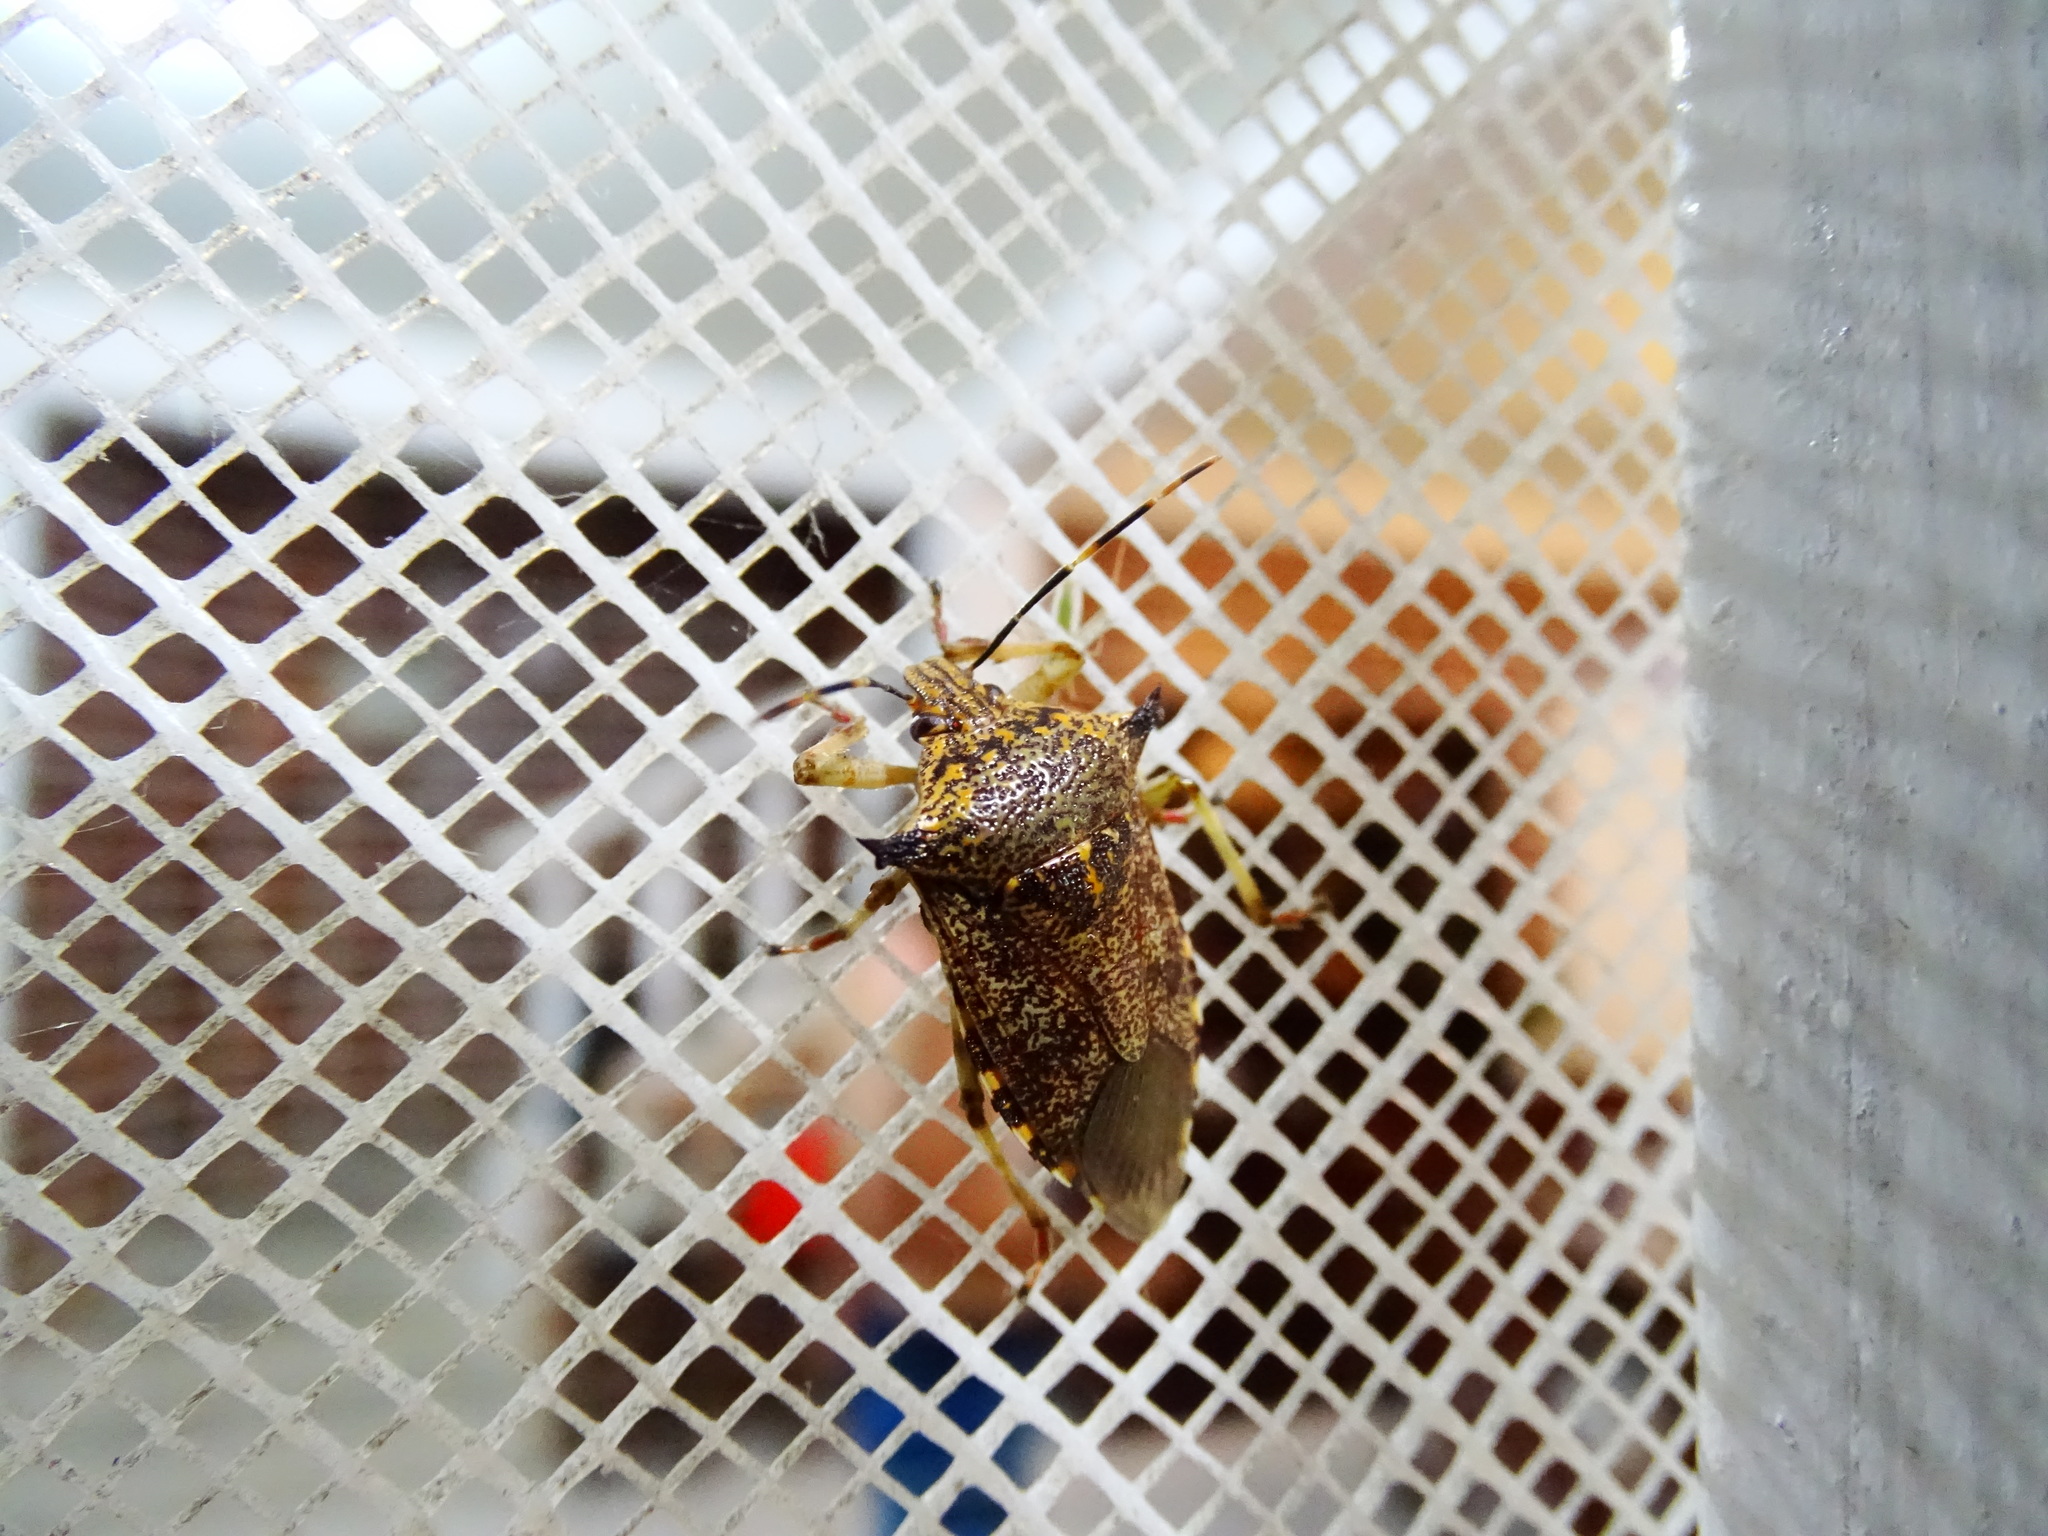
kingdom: Animalia
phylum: Arthropoda
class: Insecta
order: Hemiptera
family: Pentatomidae
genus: Alcaeorrhynchus
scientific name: Alcaeorrhynchus grandis
